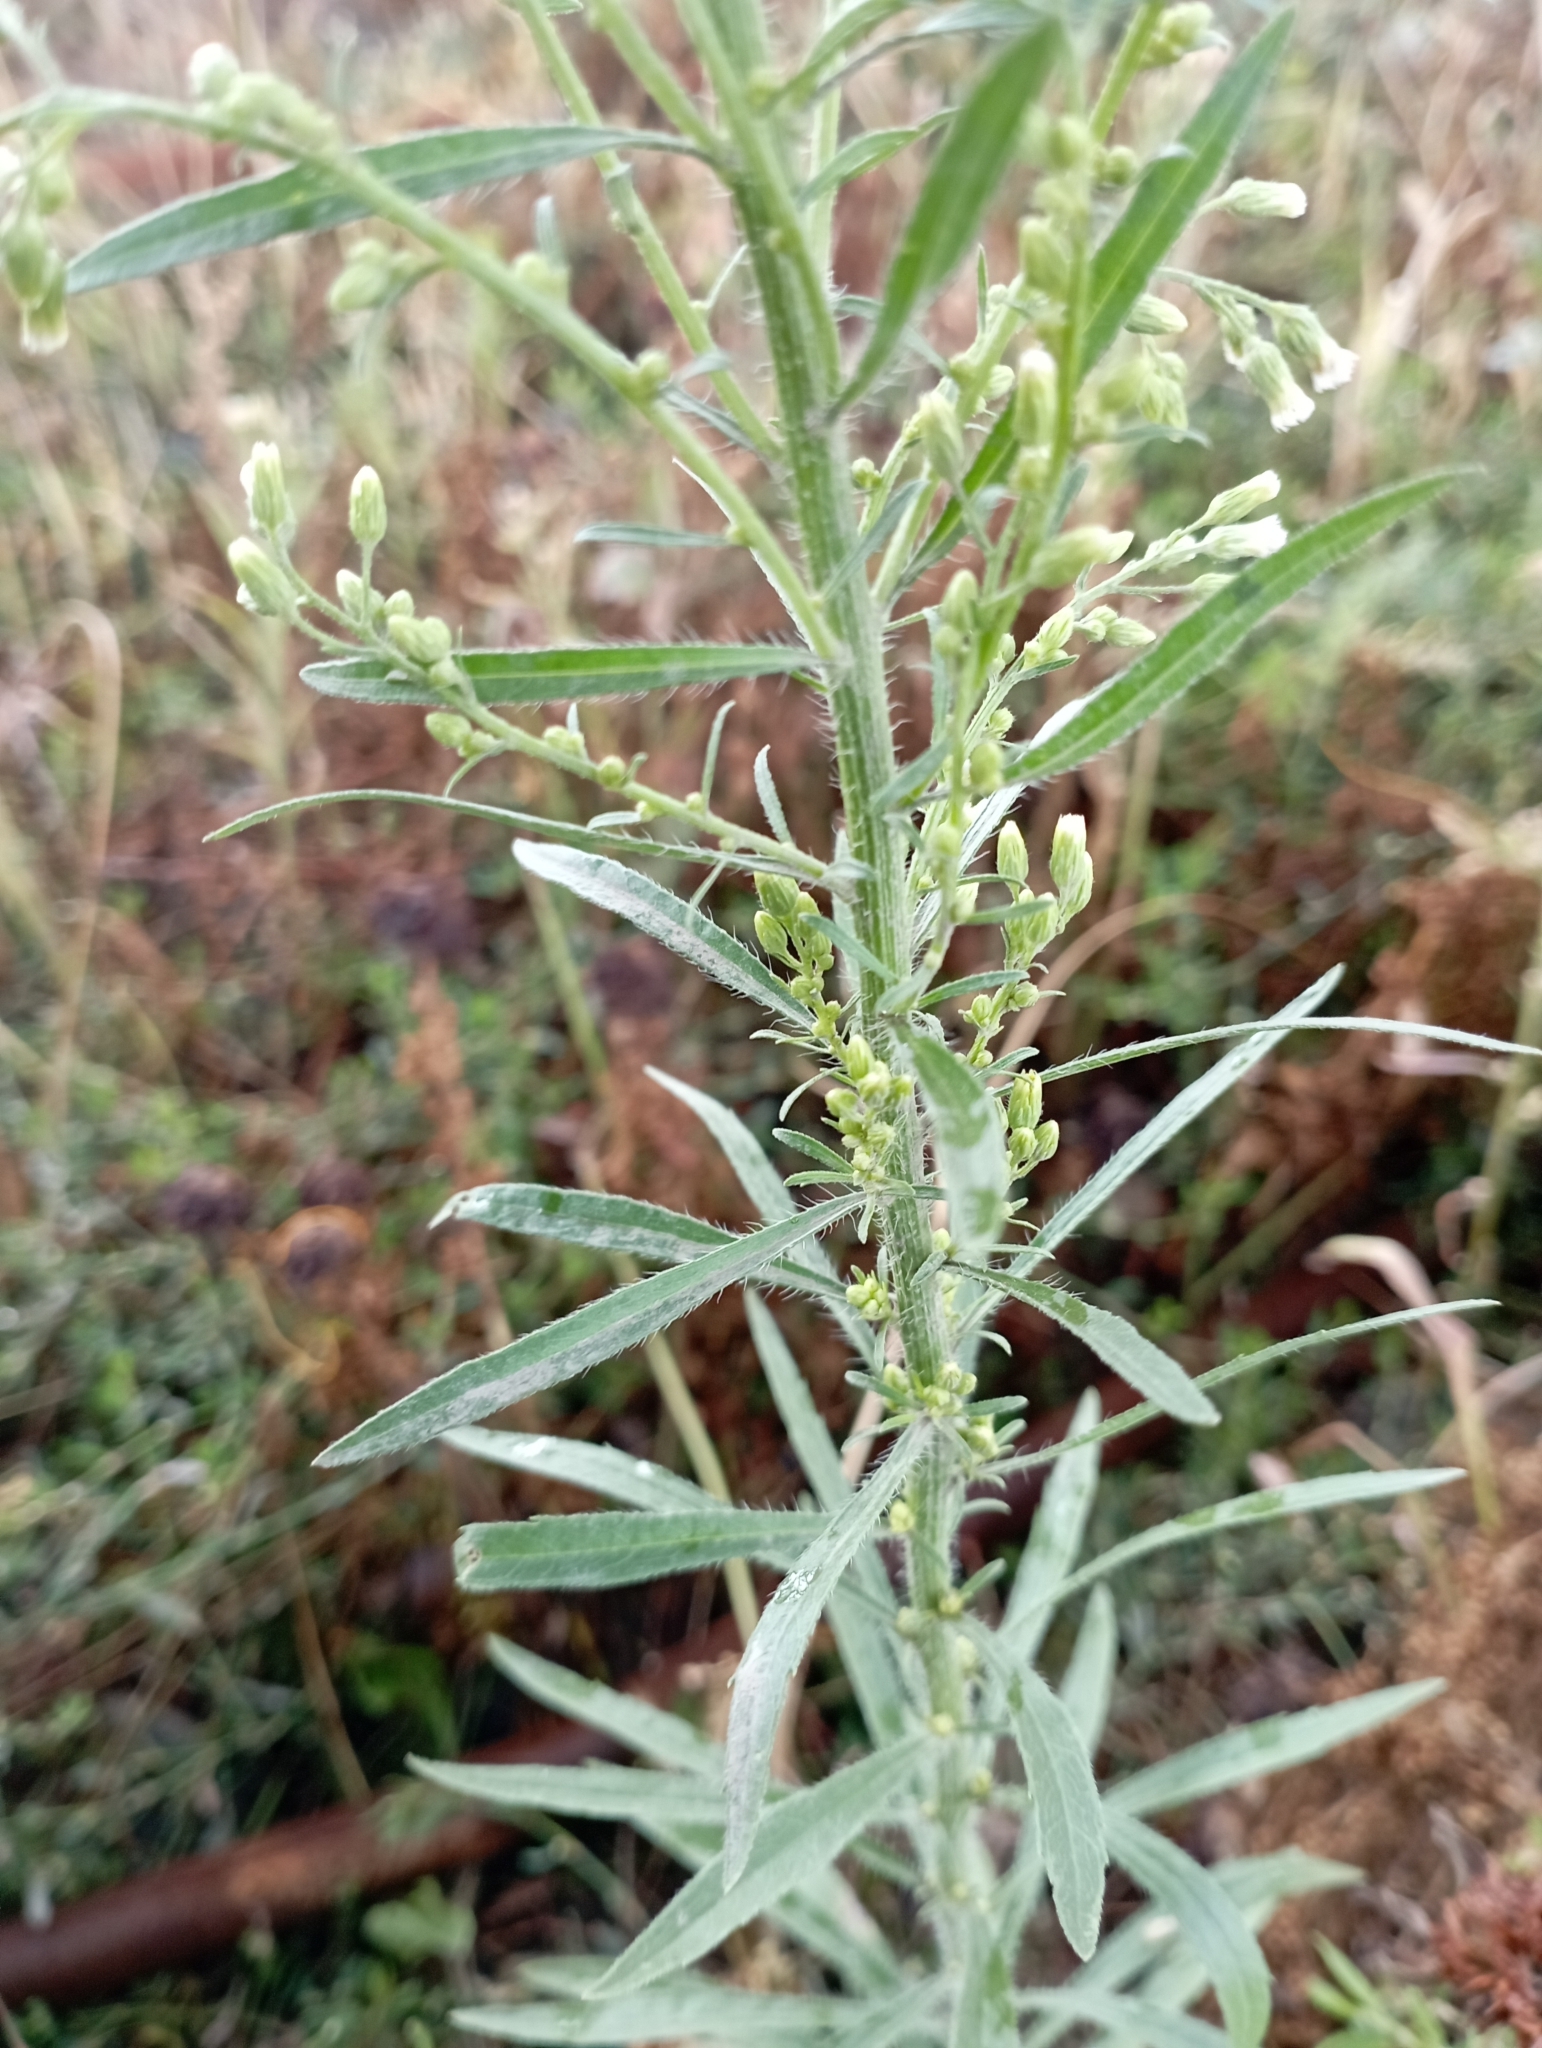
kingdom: Plantae
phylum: Tracheophyta
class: Magnoliopsida
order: Asterales
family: Asteraceae
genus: Erigeron
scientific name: Erigeron canadensis
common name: Canadian fleabane
